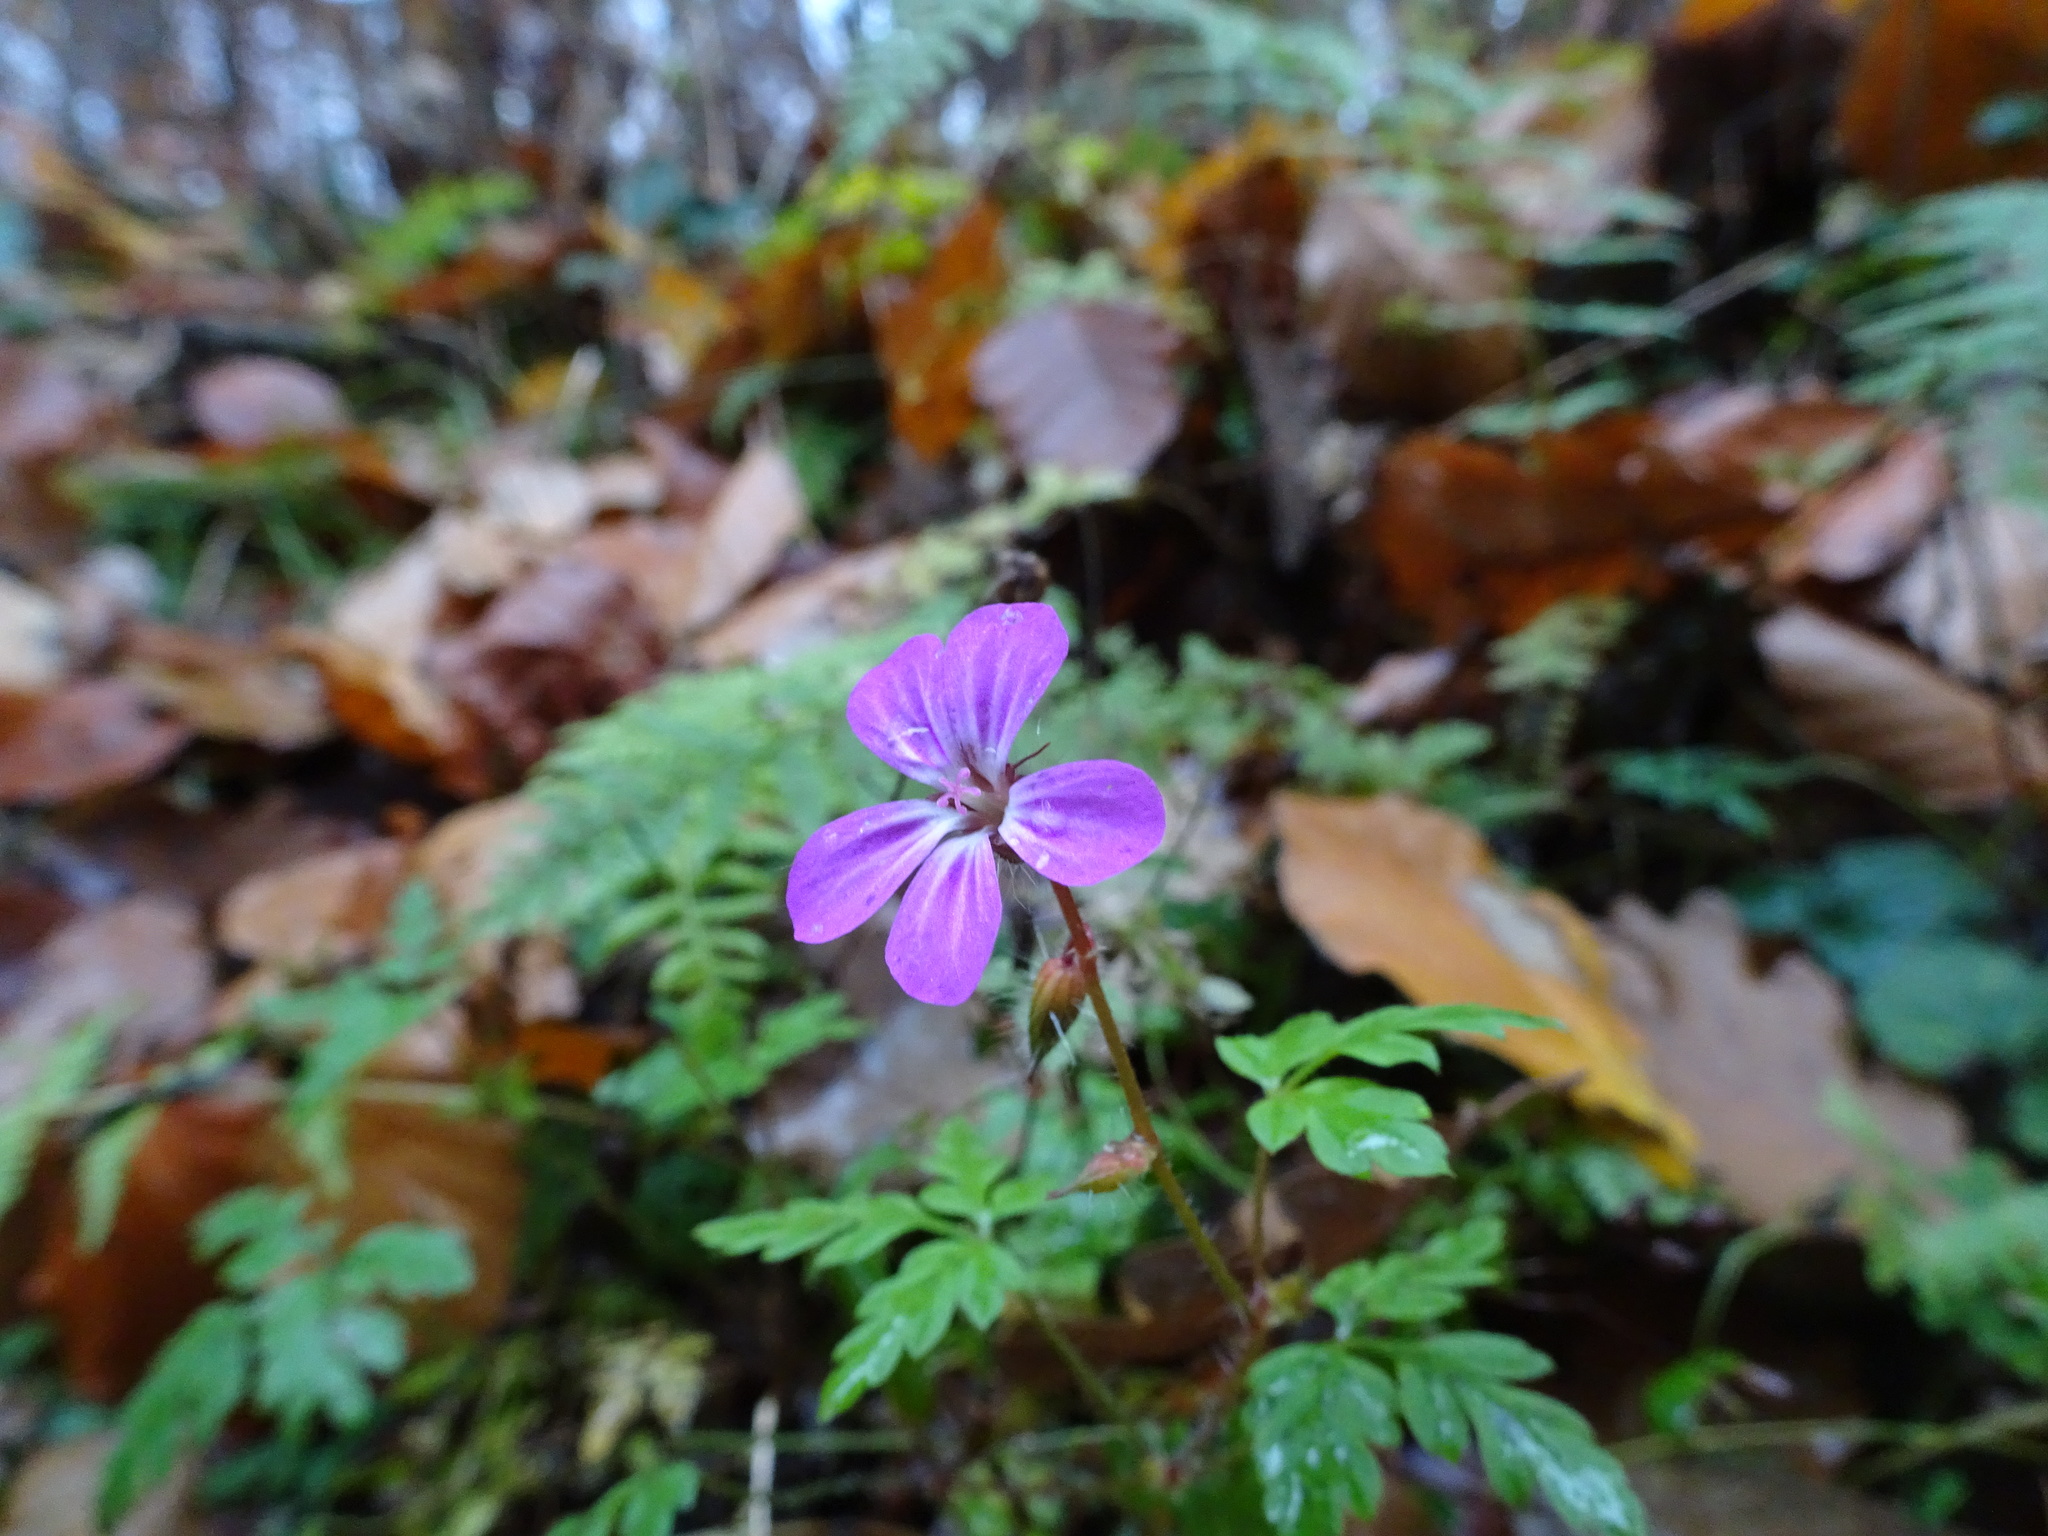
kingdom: Plantae
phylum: Tracheophyta
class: Magnoliopsida
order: Geraniales
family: Geraniaceae
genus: Geranium
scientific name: Geranium robertianum
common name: Herb-robert
